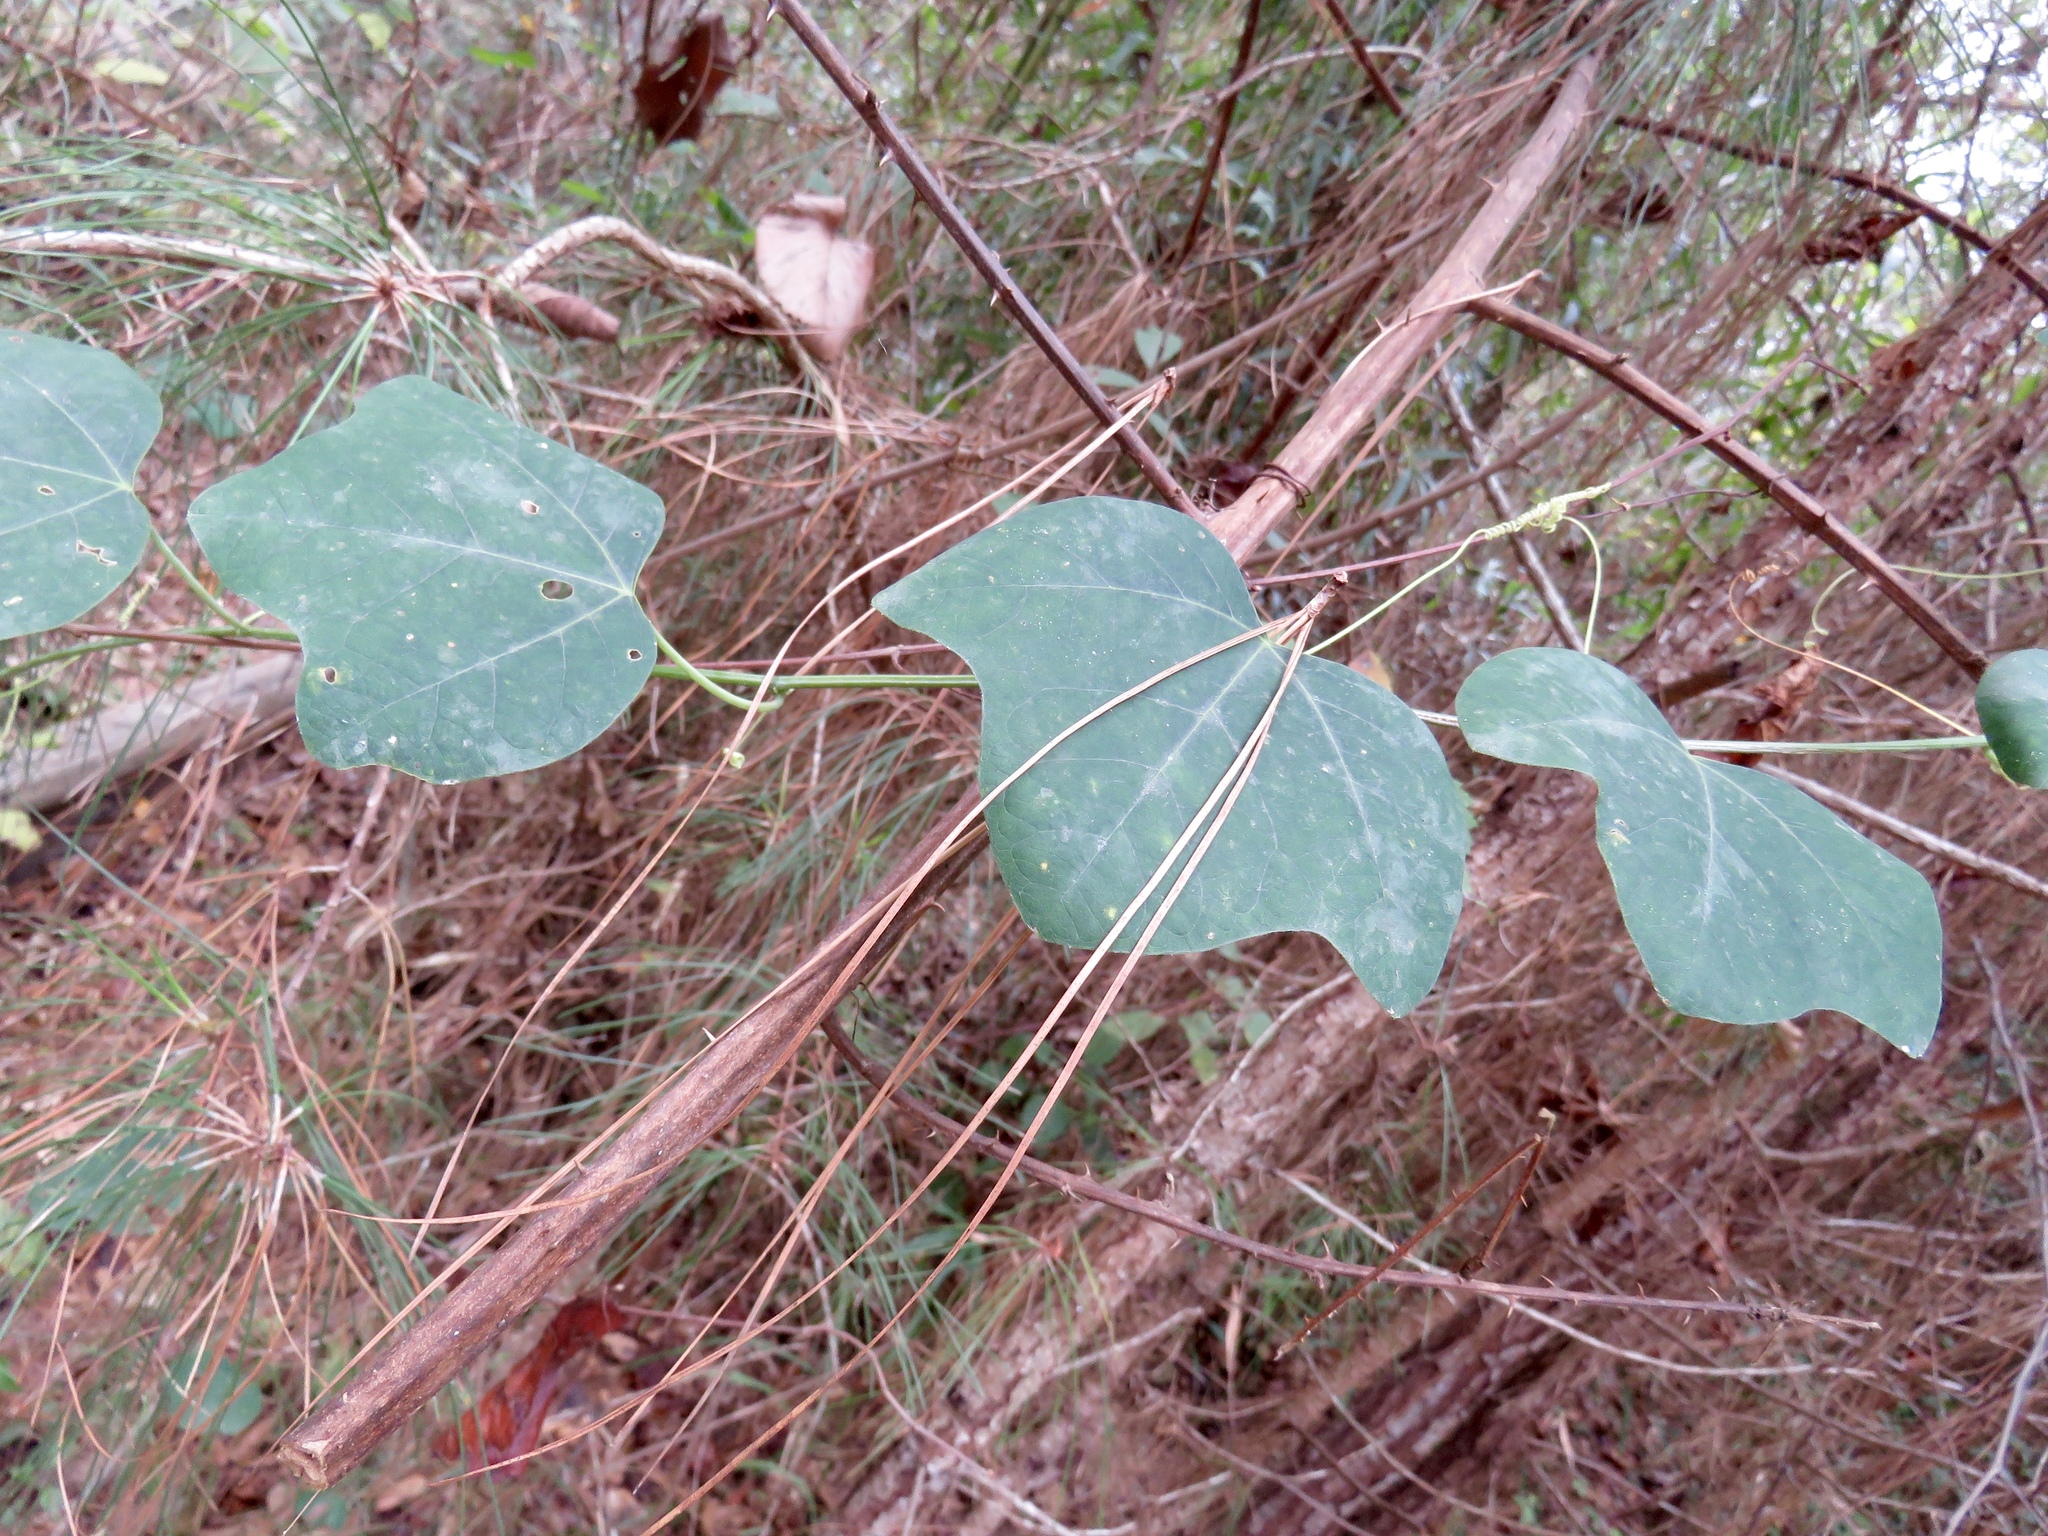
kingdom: Plantae
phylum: Tracheophyta
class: Magnoliopsida
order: Malpighiales
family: Passifloraceae
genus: Passiflora
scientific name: Passiflora lutea
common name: Yellow passionflower
